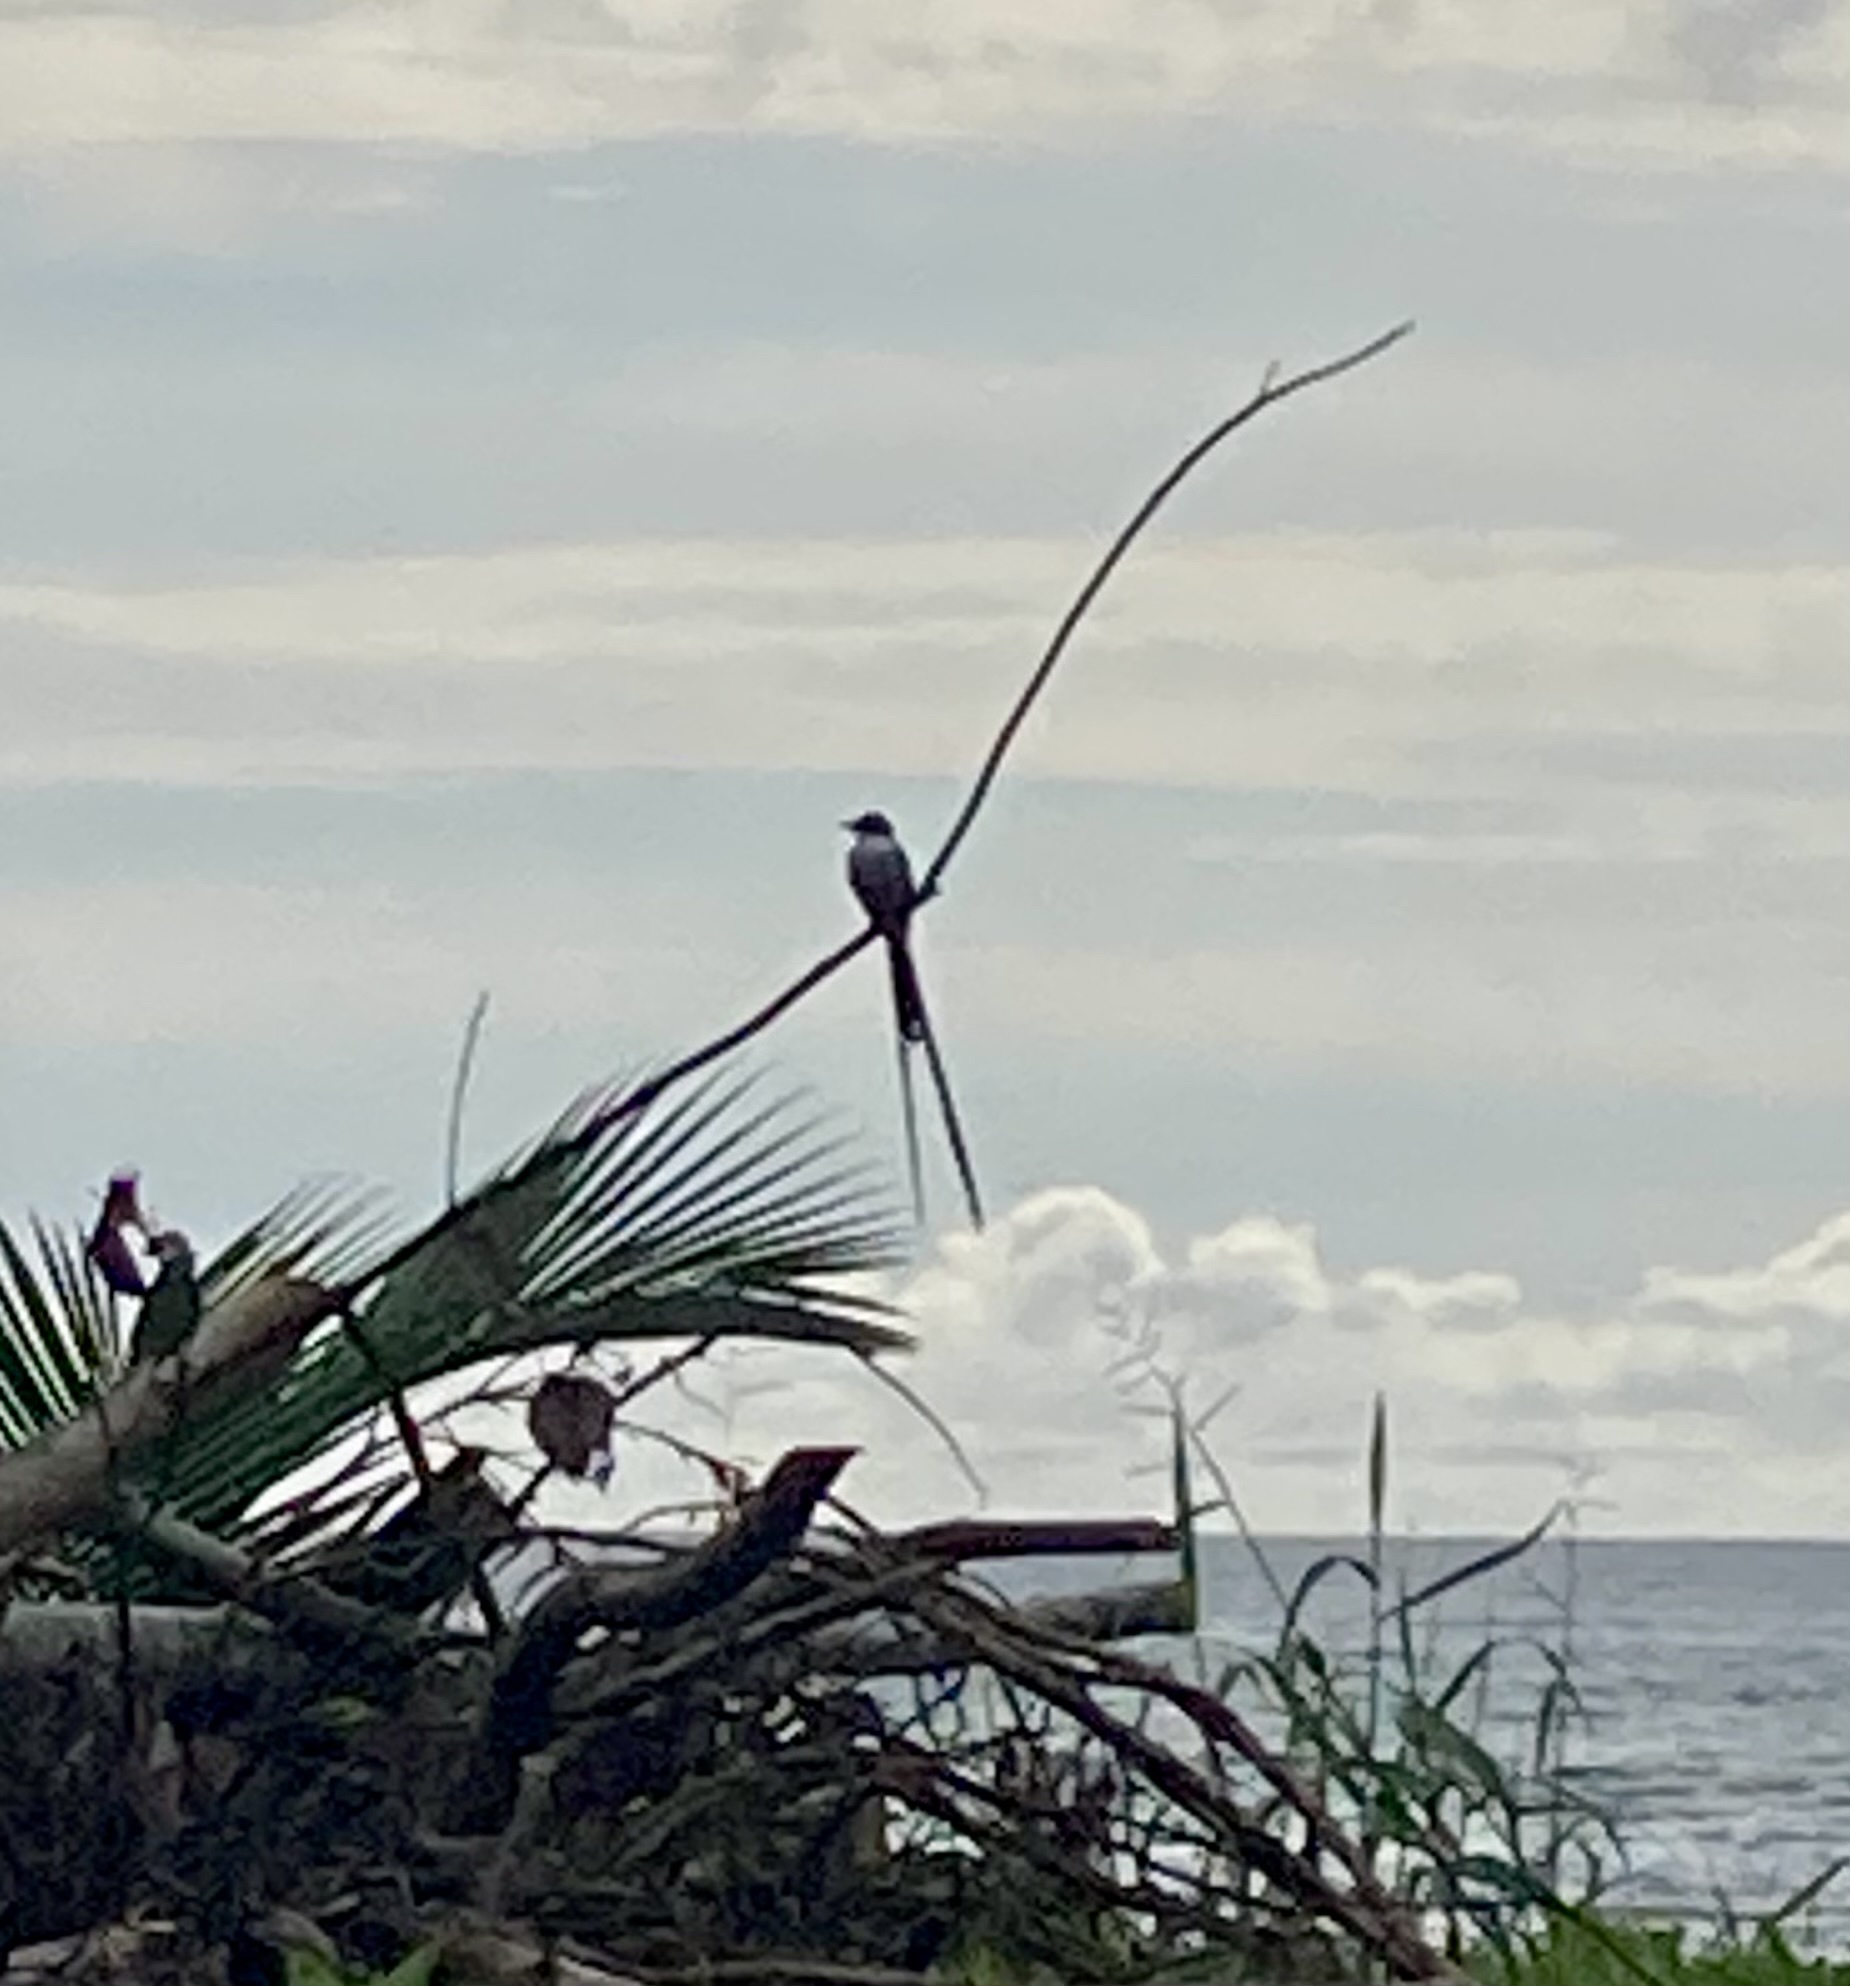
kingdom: Animalia
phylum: Chordata
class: Aves
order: Passeriformes
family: Tyrannidae
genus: Tyrannus
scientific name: Tyrannus savana
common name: Fork-tailed flycatcher
